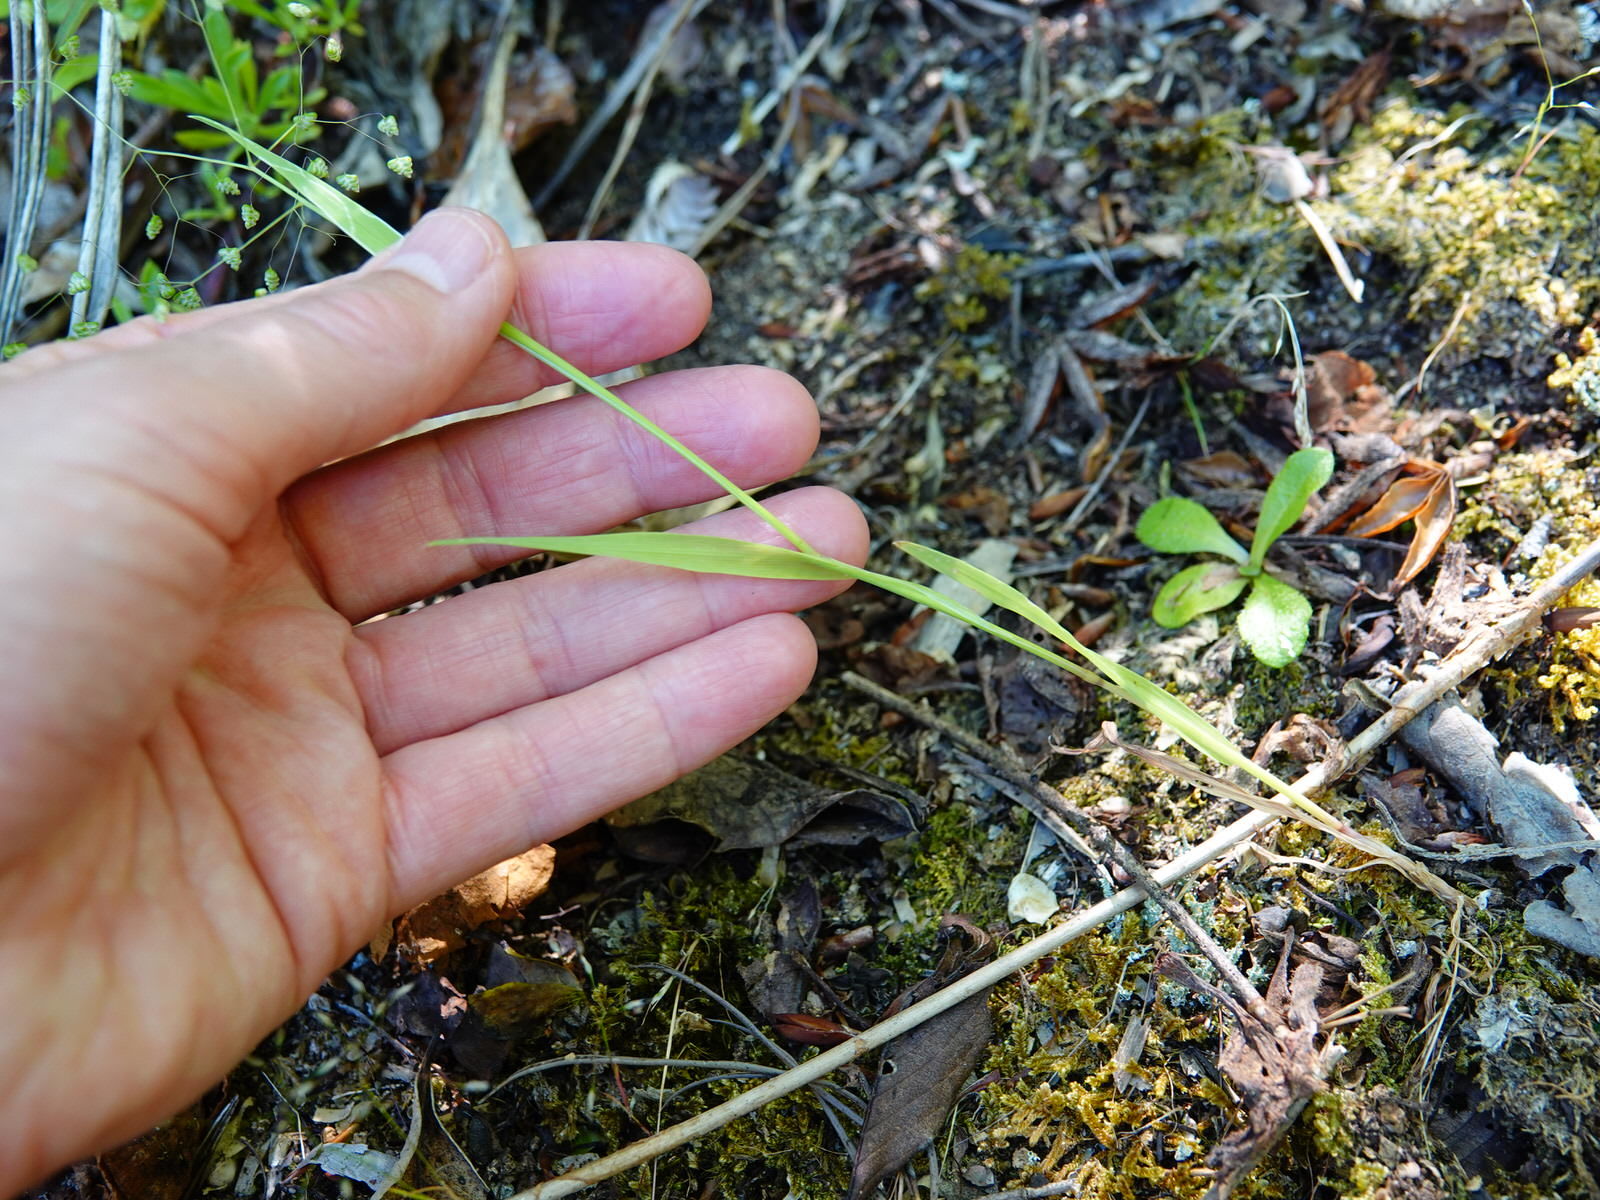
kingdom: Plantae
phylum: Tracheophyta
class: Liliopsida
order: Poales
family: Poaceae
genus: Briza
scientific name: Briza minor
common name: Lesser quaking-grass
